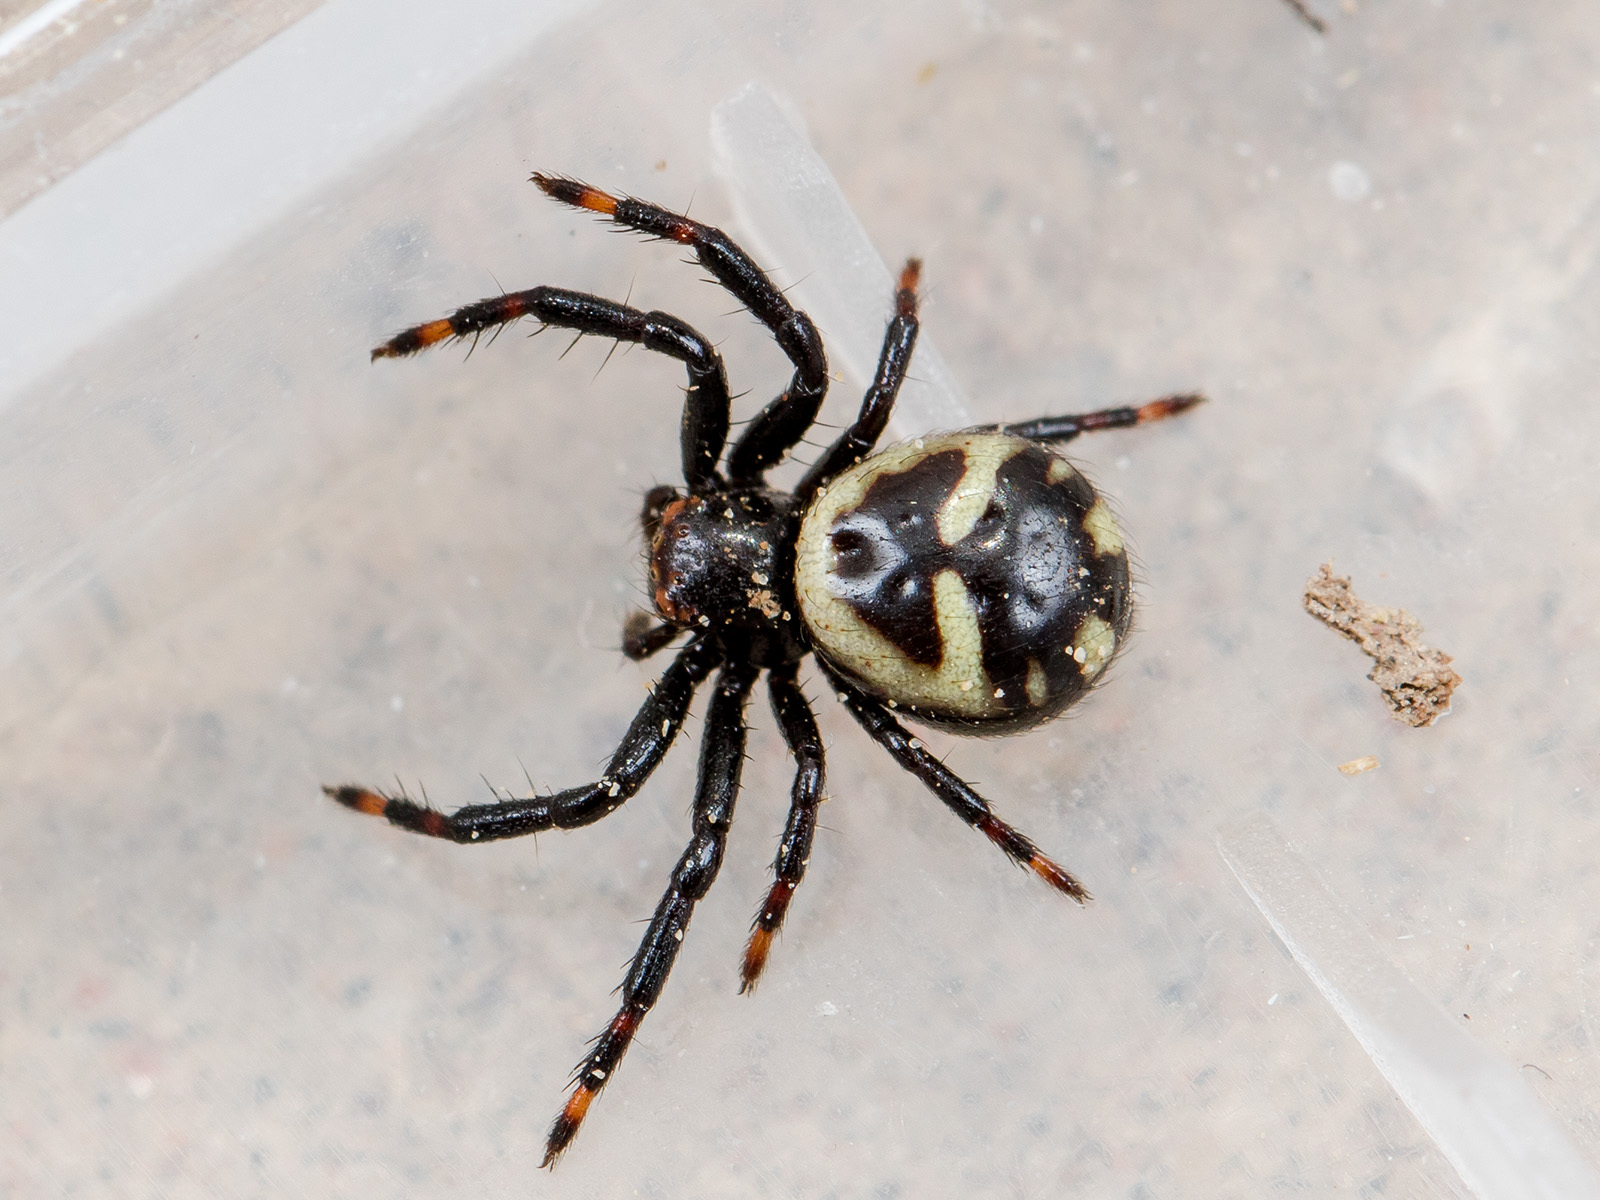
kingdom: Animalia
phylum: Arthropoda
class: Arachnida
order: Araneae
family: Thomisidae
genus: Synema
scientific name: Synema utotchkini
